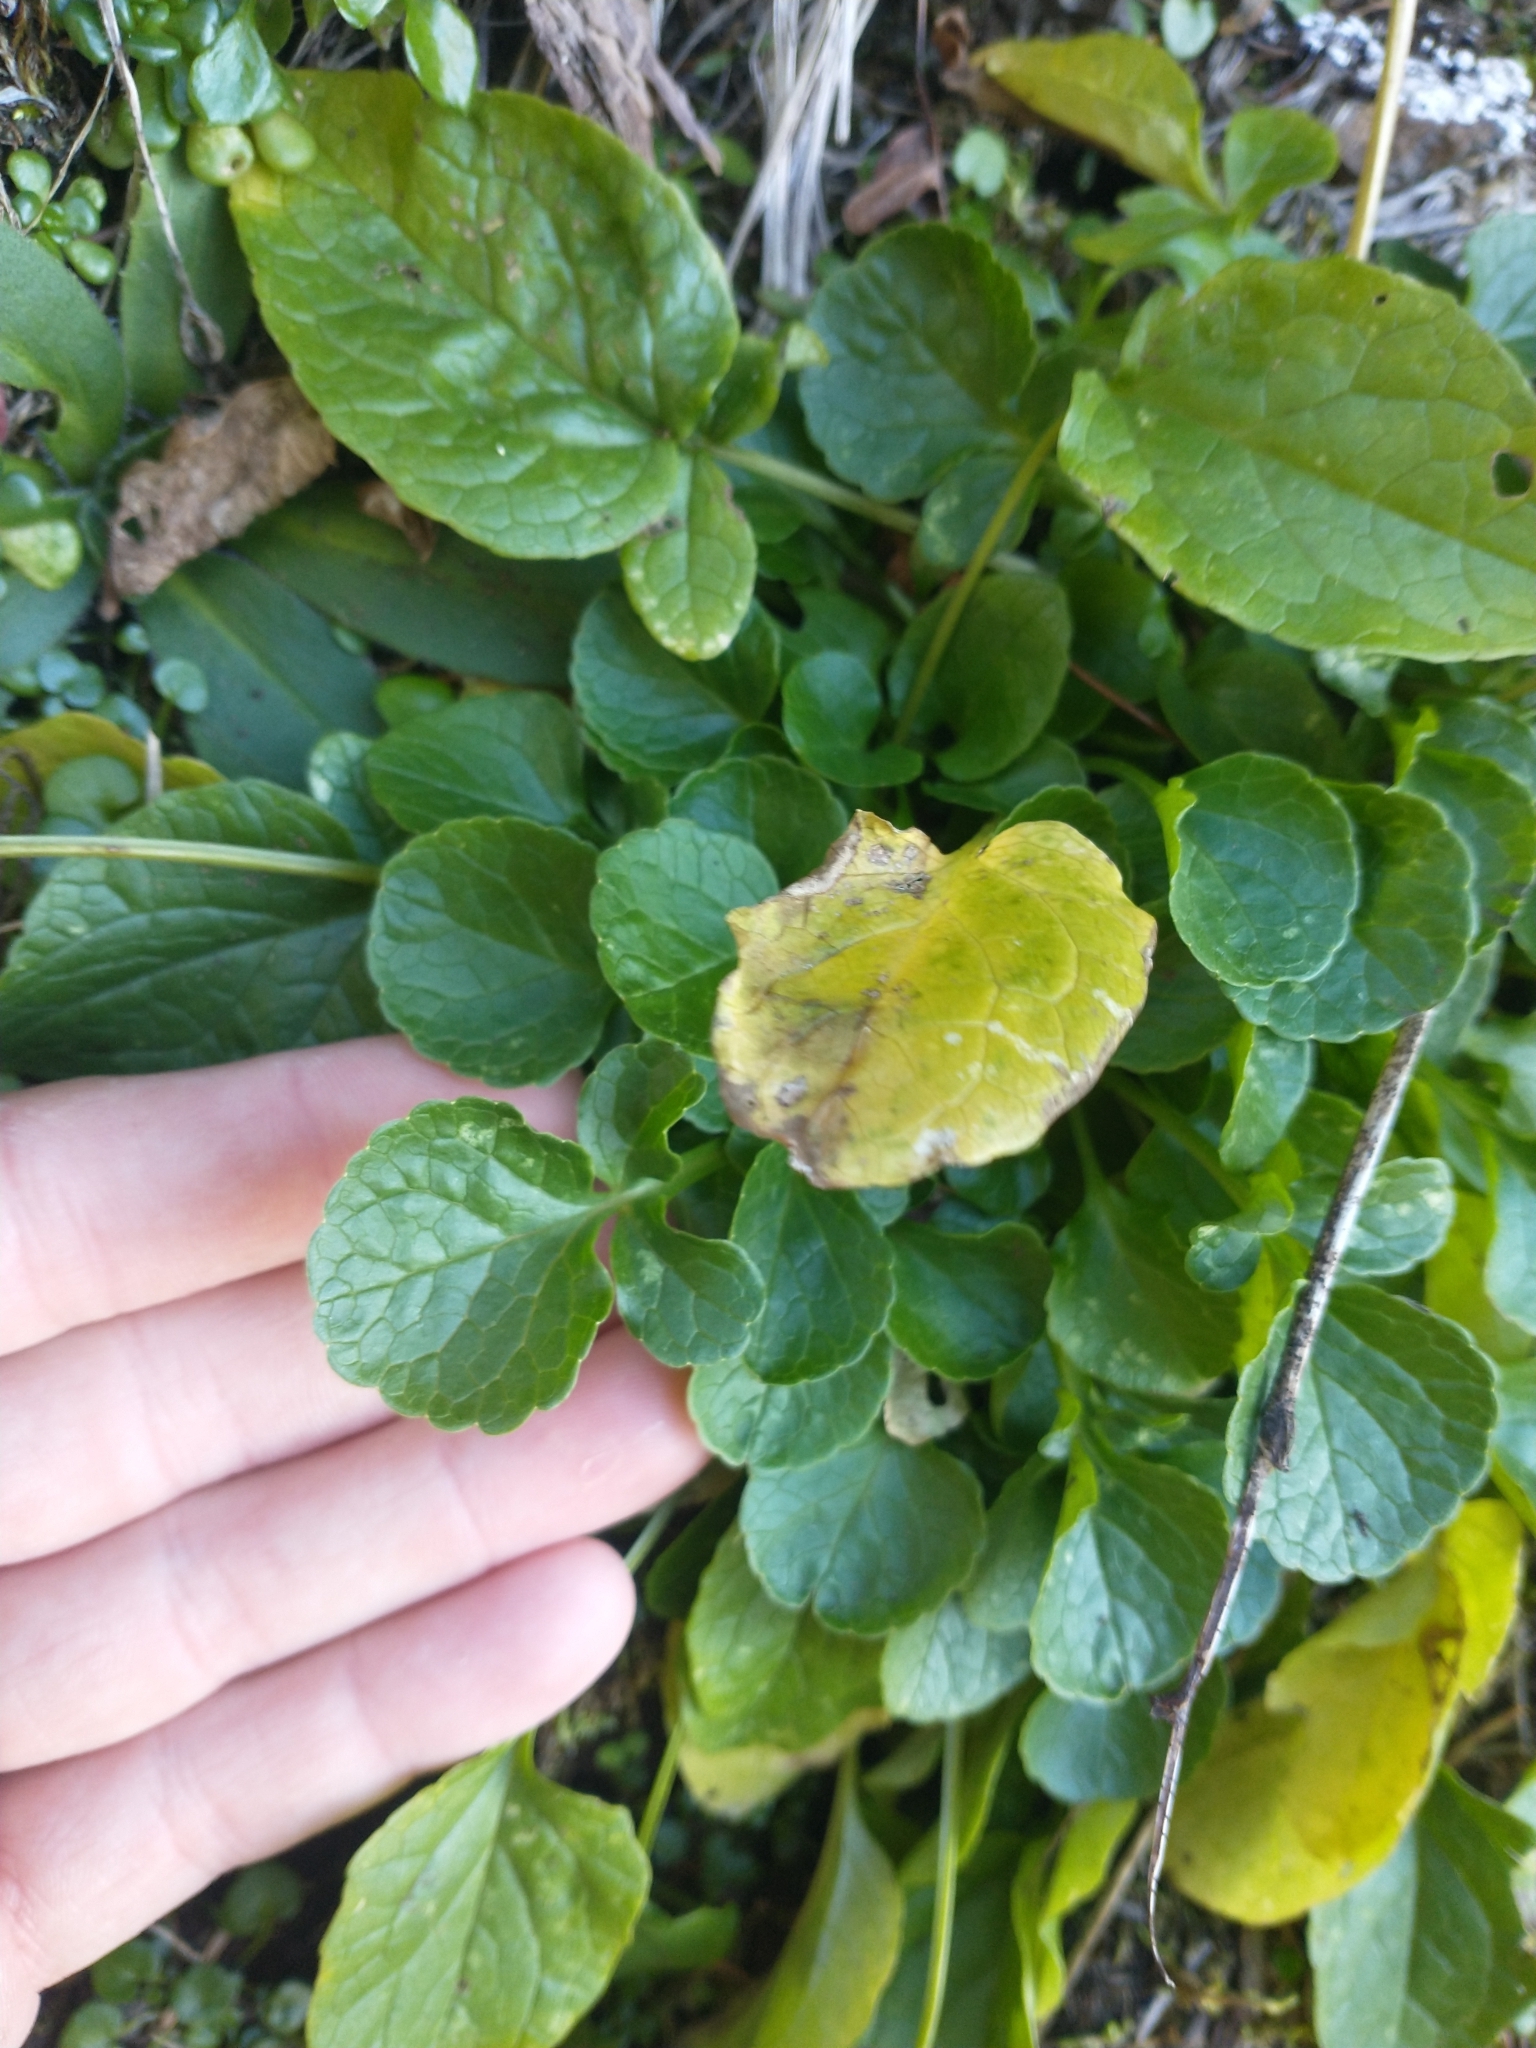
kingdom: Plantae
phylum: Tracheophyta
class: Magnoliopsida
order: Dipsacales
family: Caprifoliaceae
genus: Valeriana
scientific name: Valeriana sitchensis
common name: Pacific valerian
